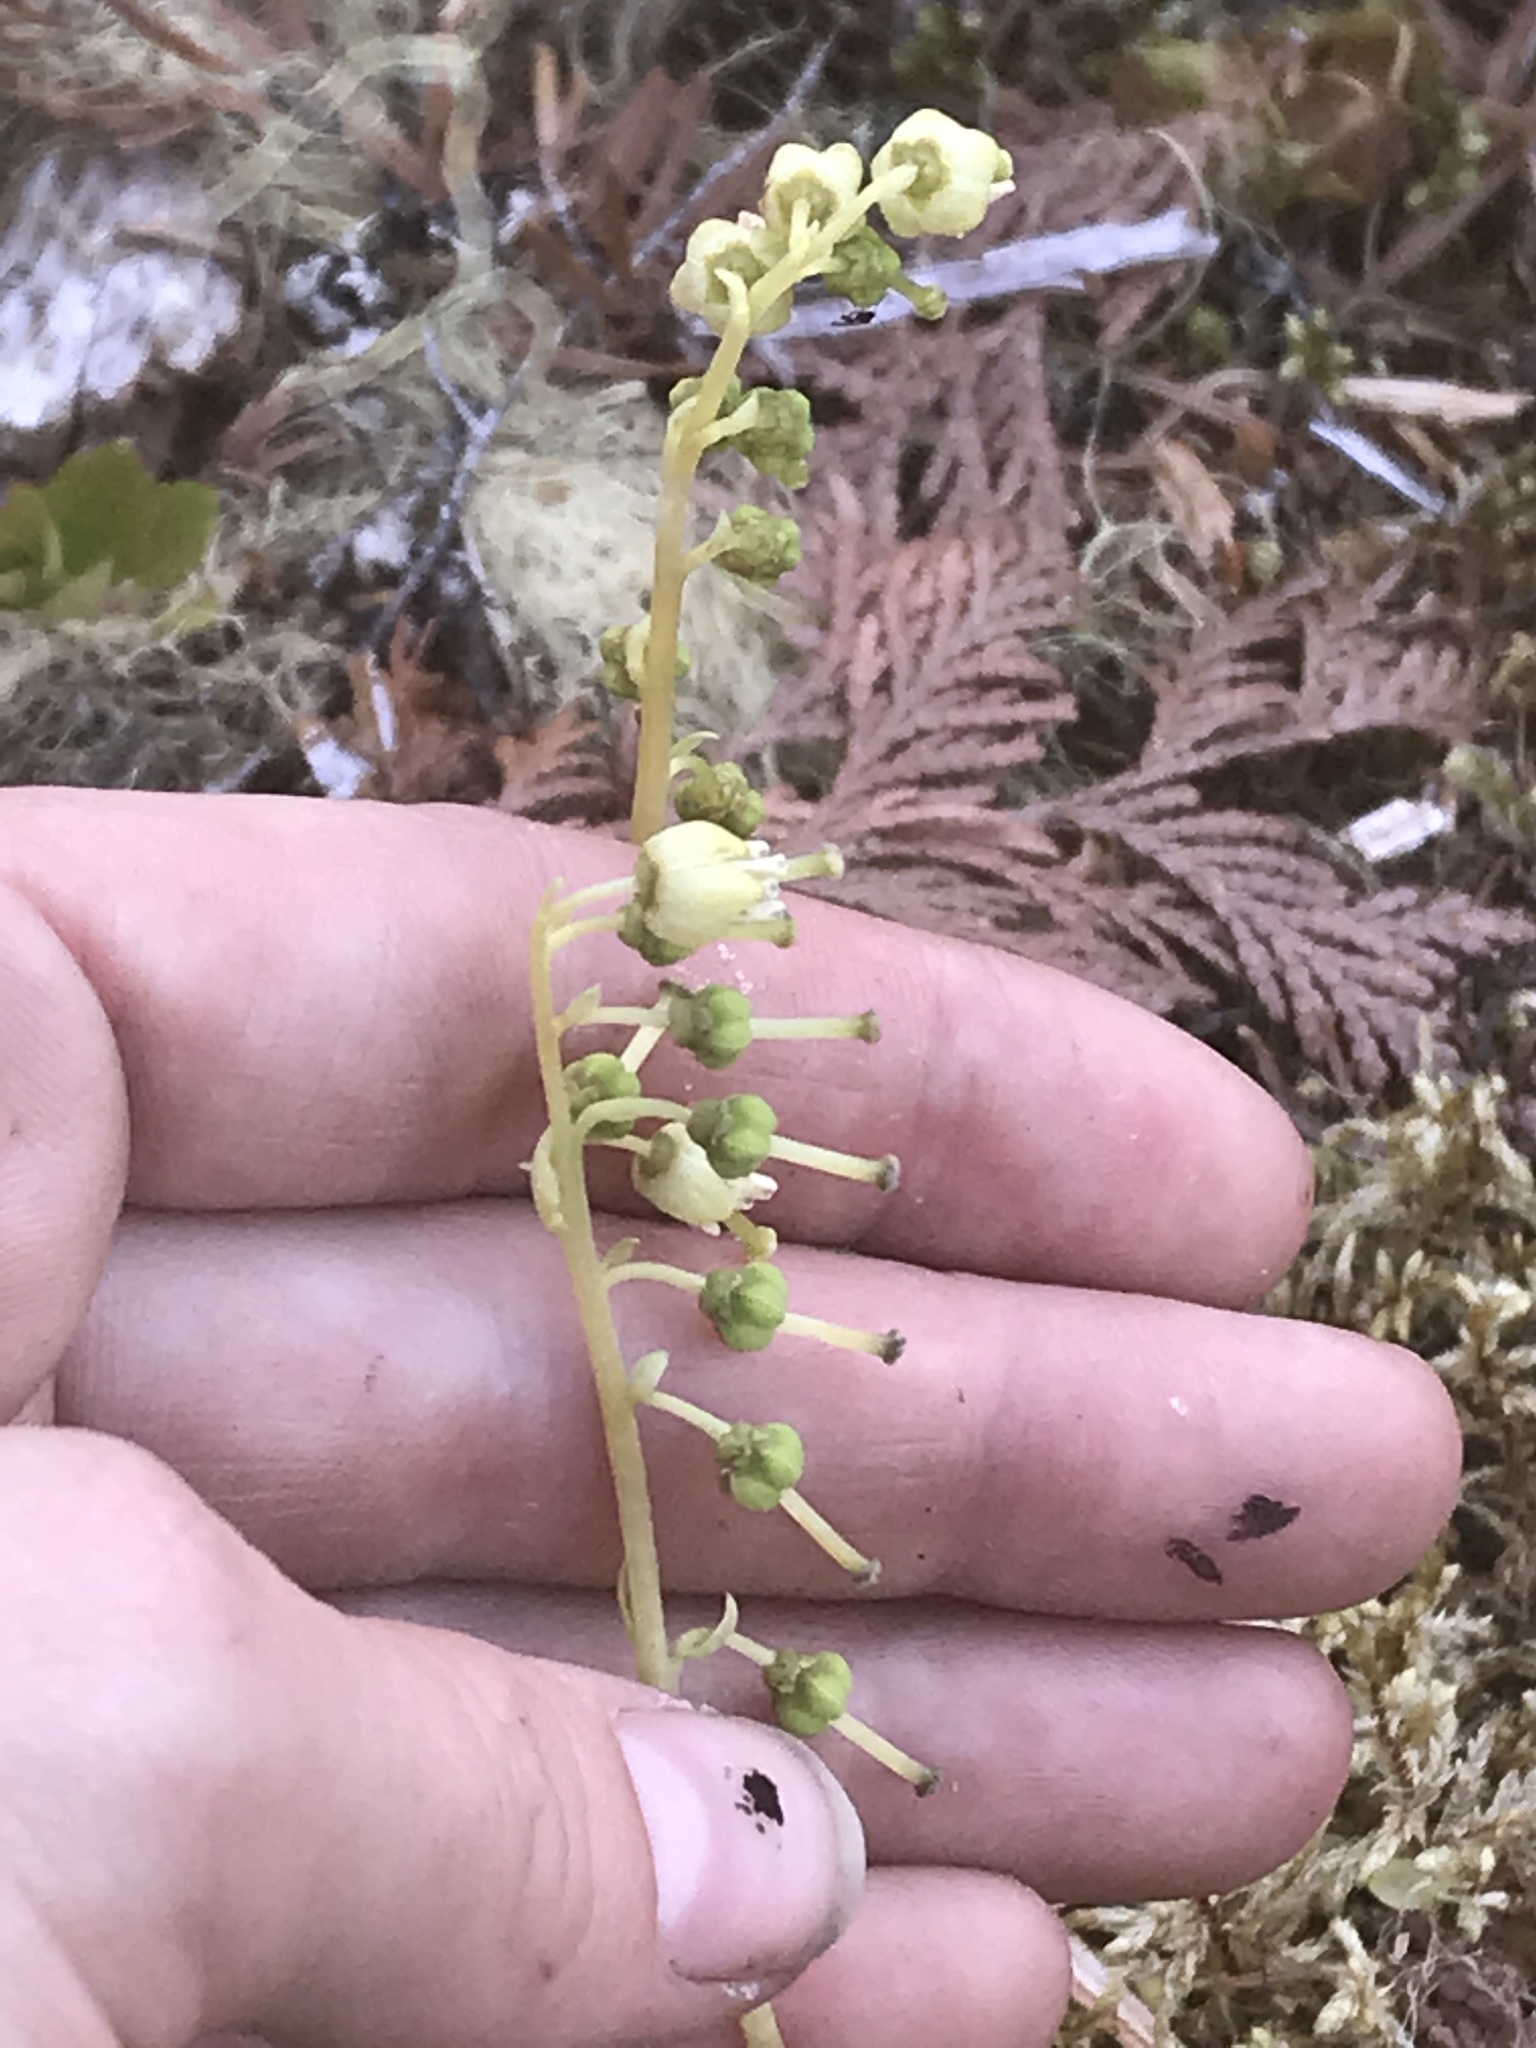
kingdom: Plantae
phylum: Tracheophyta
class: Magnoliopsida
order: Ericales
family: Ericaceae
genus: Orthilia
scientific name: Orthilia secunda
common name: One-sided orthilia
